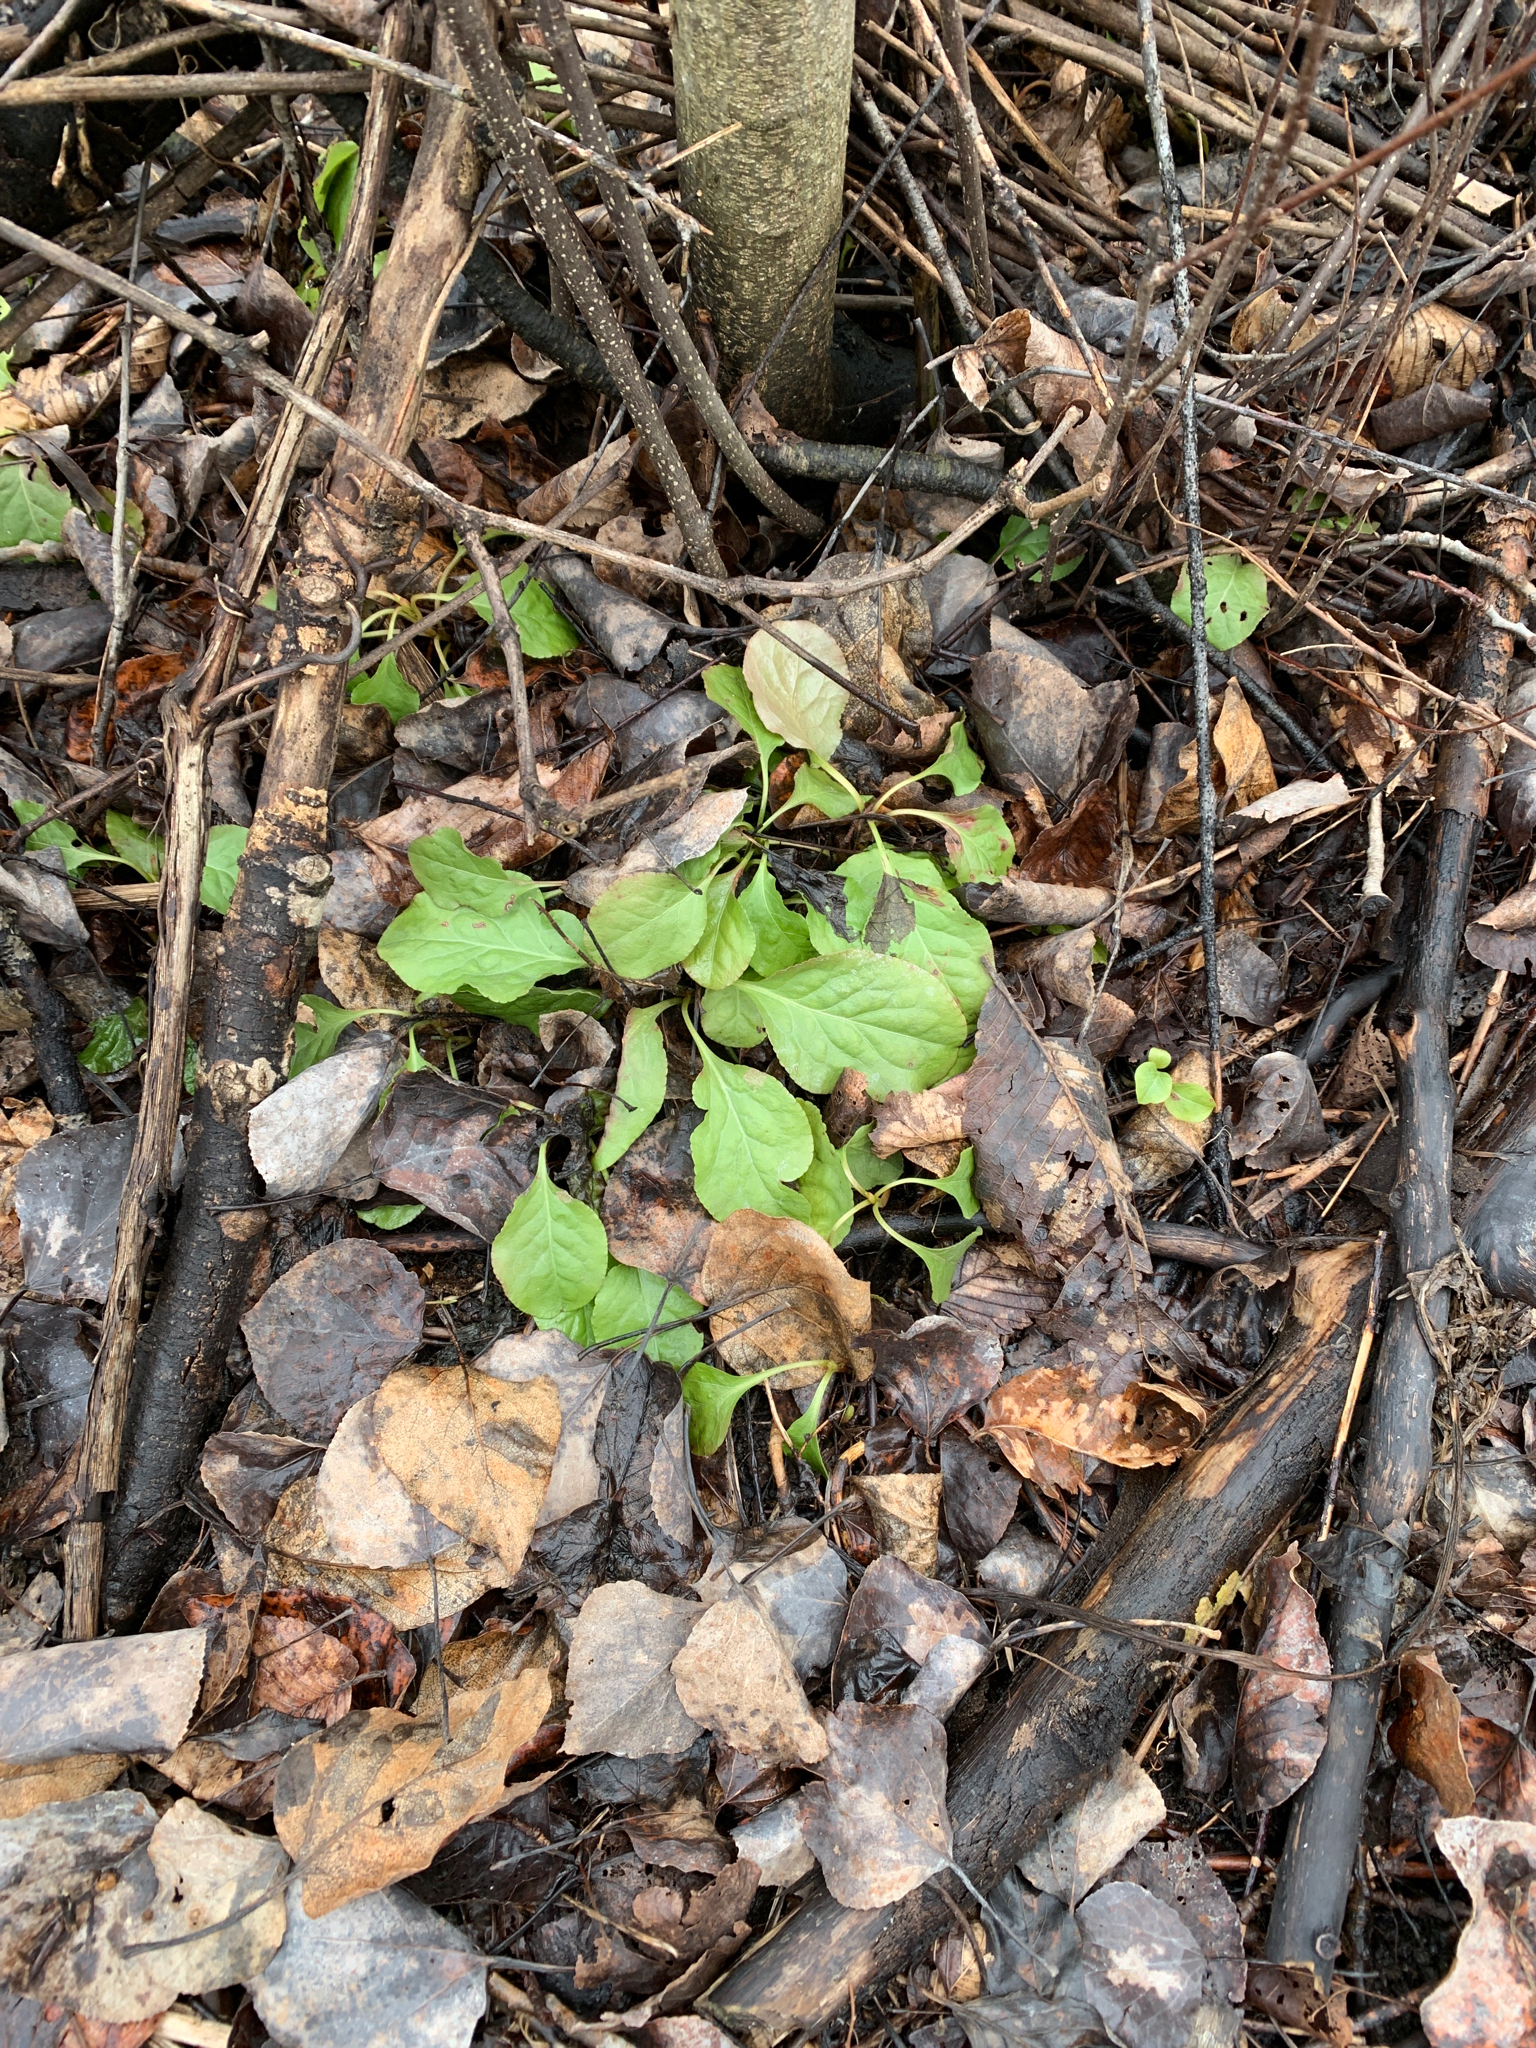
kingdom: Plantae
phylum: Tracheophyta
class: Magnoliopsida
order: Ericales
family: Ericaceae
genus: Pyrola
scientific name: Pyrola elliptica
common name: Shinleaf
